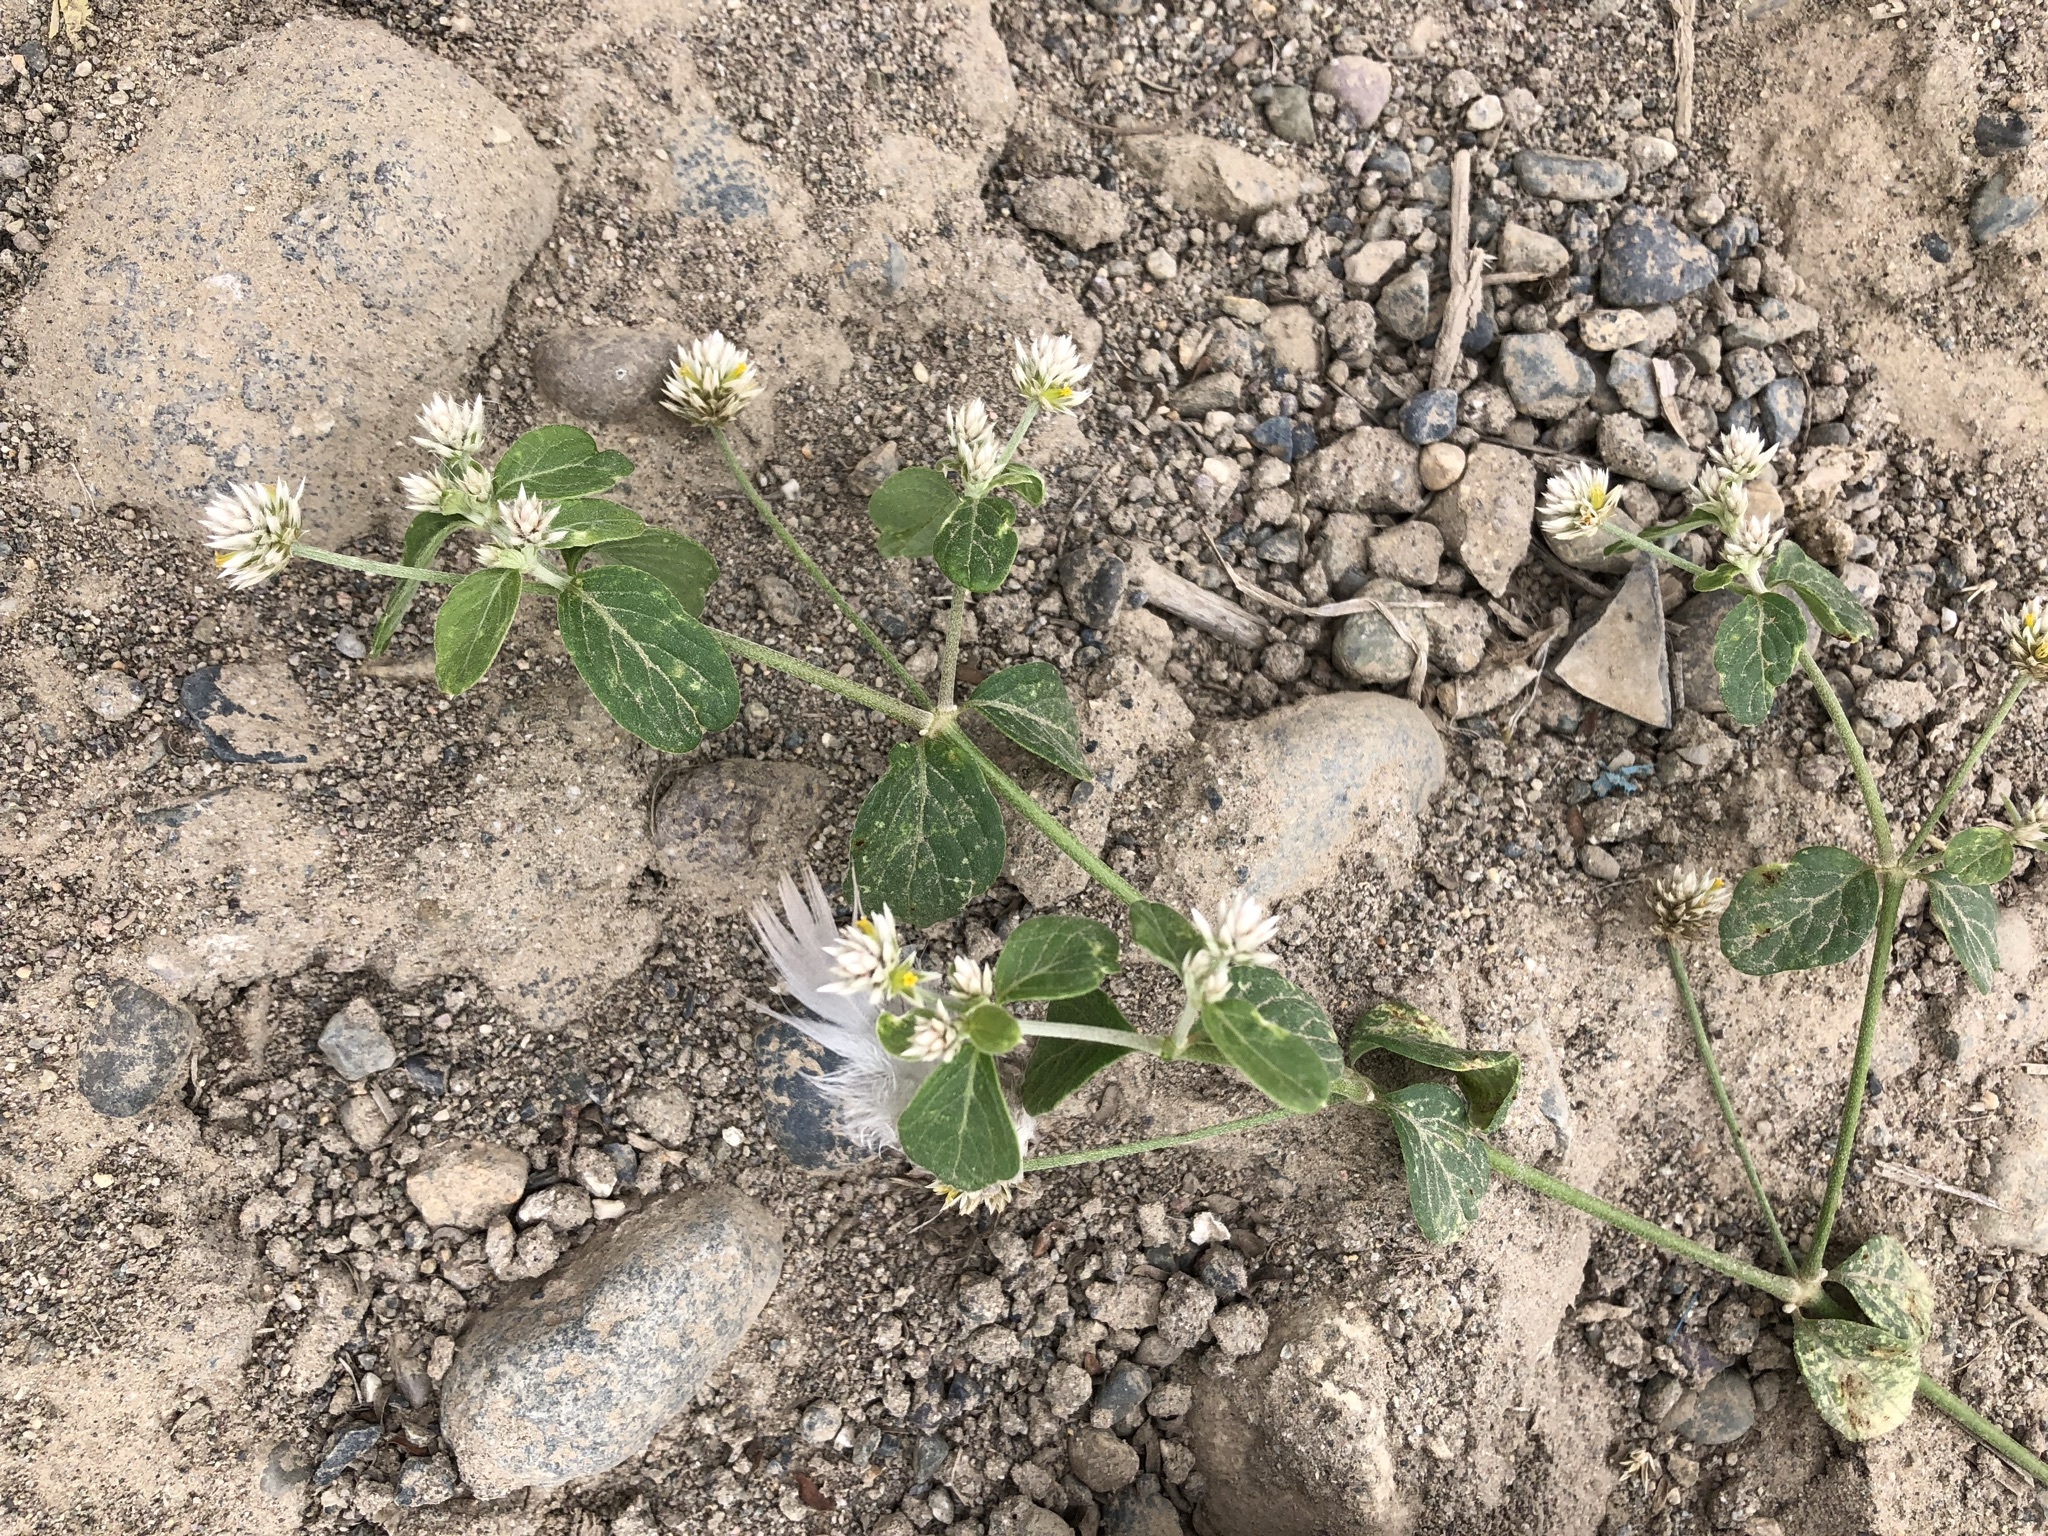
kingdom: Plantae
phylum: Tracheophyta
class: Magnoliopsida
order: Caryophyllales
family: Amaranthaceae
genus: Alternanthera
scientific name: Alternanthera halimifolia
